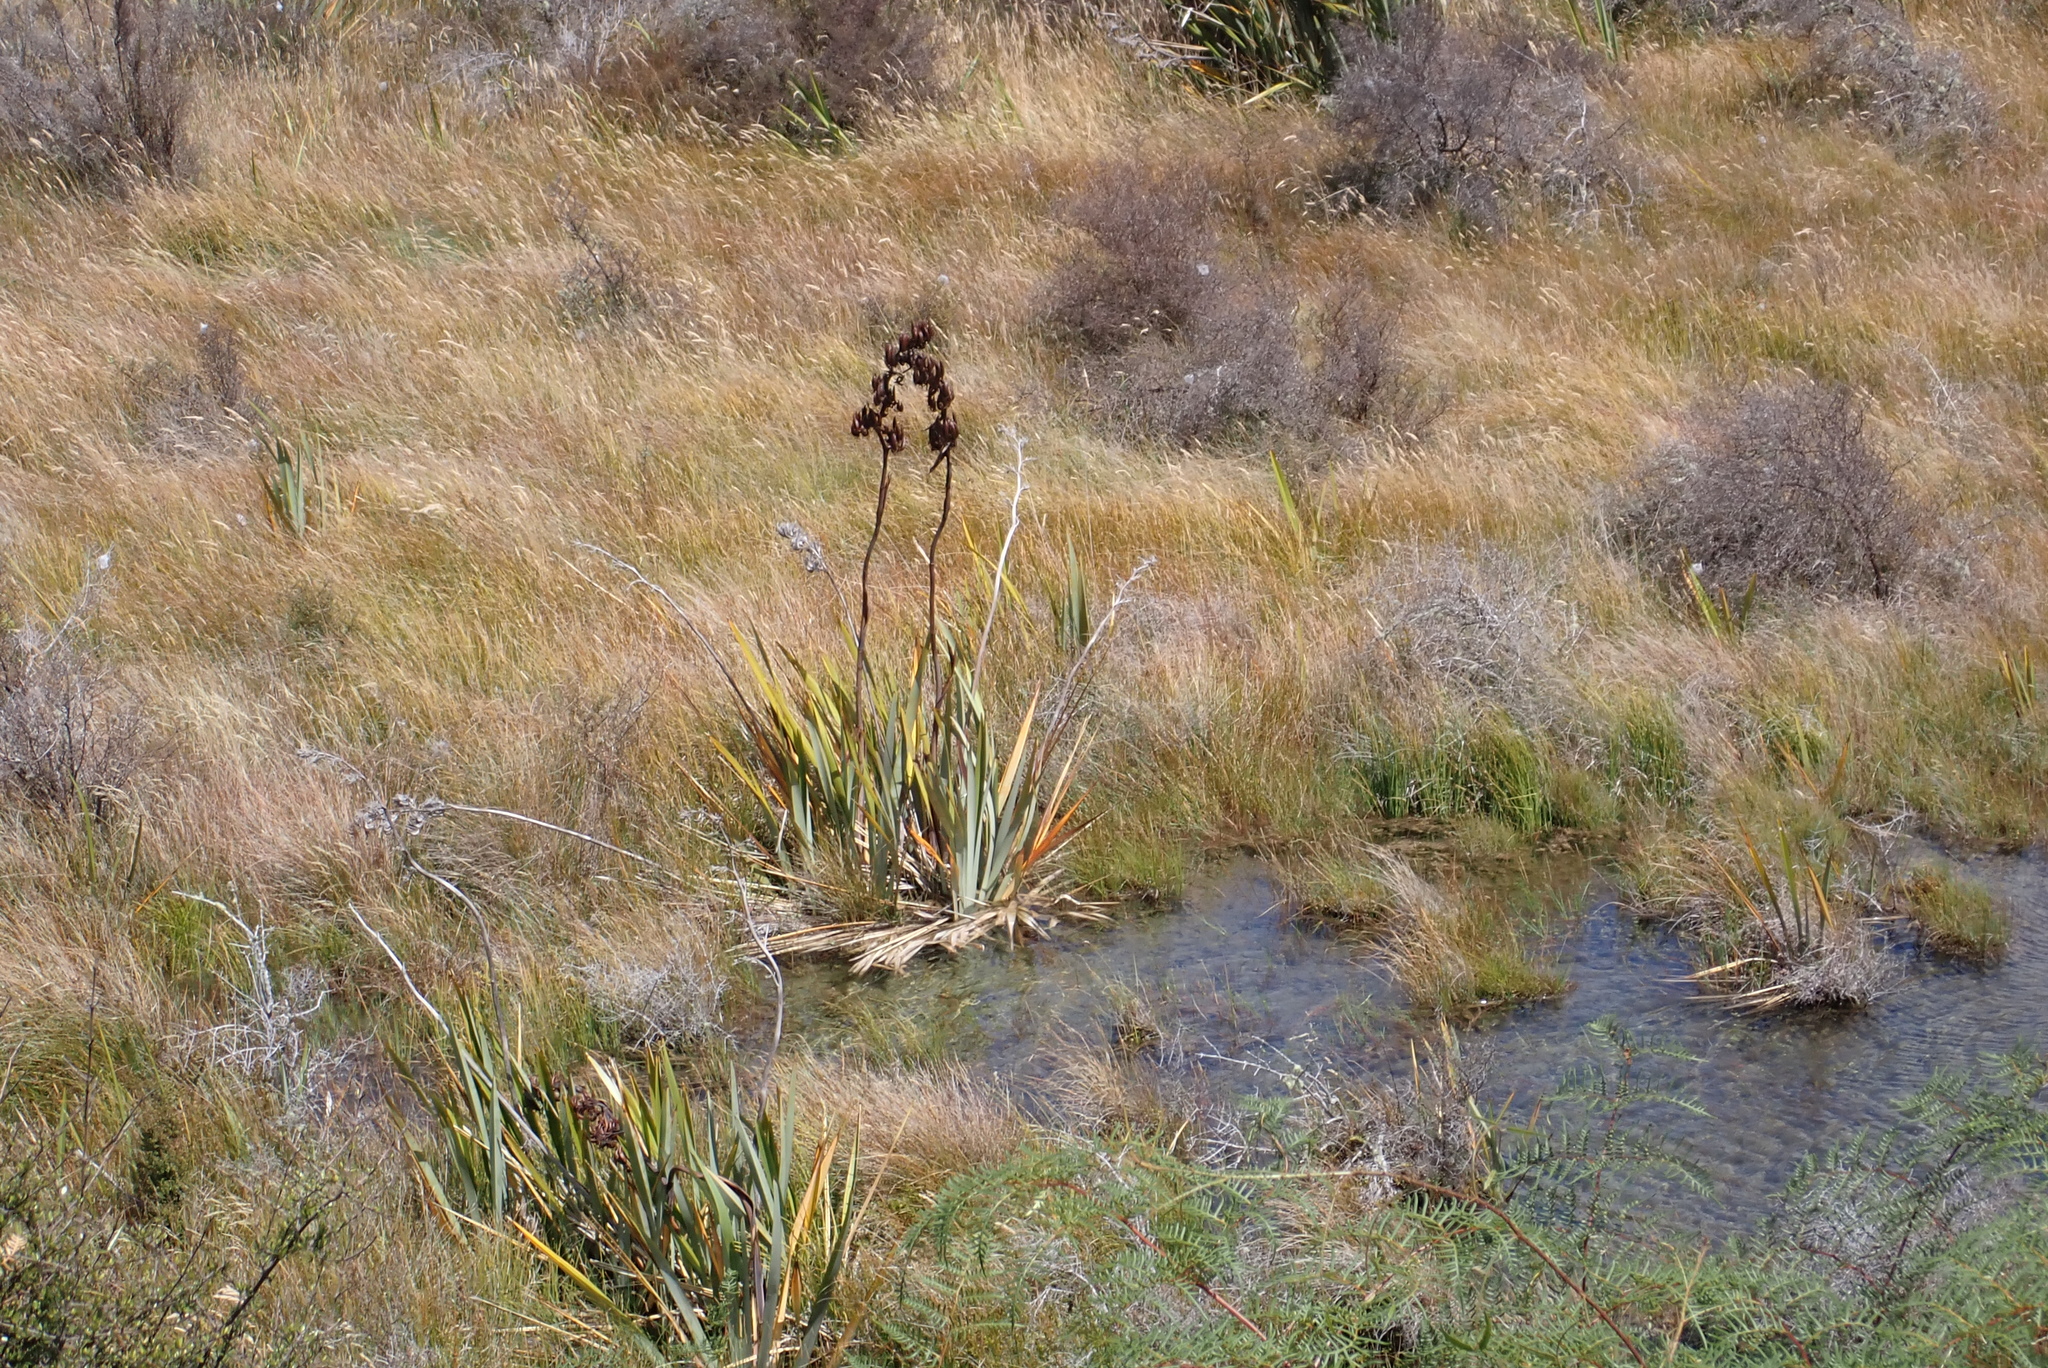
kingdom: Plantae
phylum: Tracheophyta
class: Liliopsida
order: Asparagales
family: Asphodelaceae
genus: Phormium
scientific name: Phormium tenax
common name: New zealand flax
